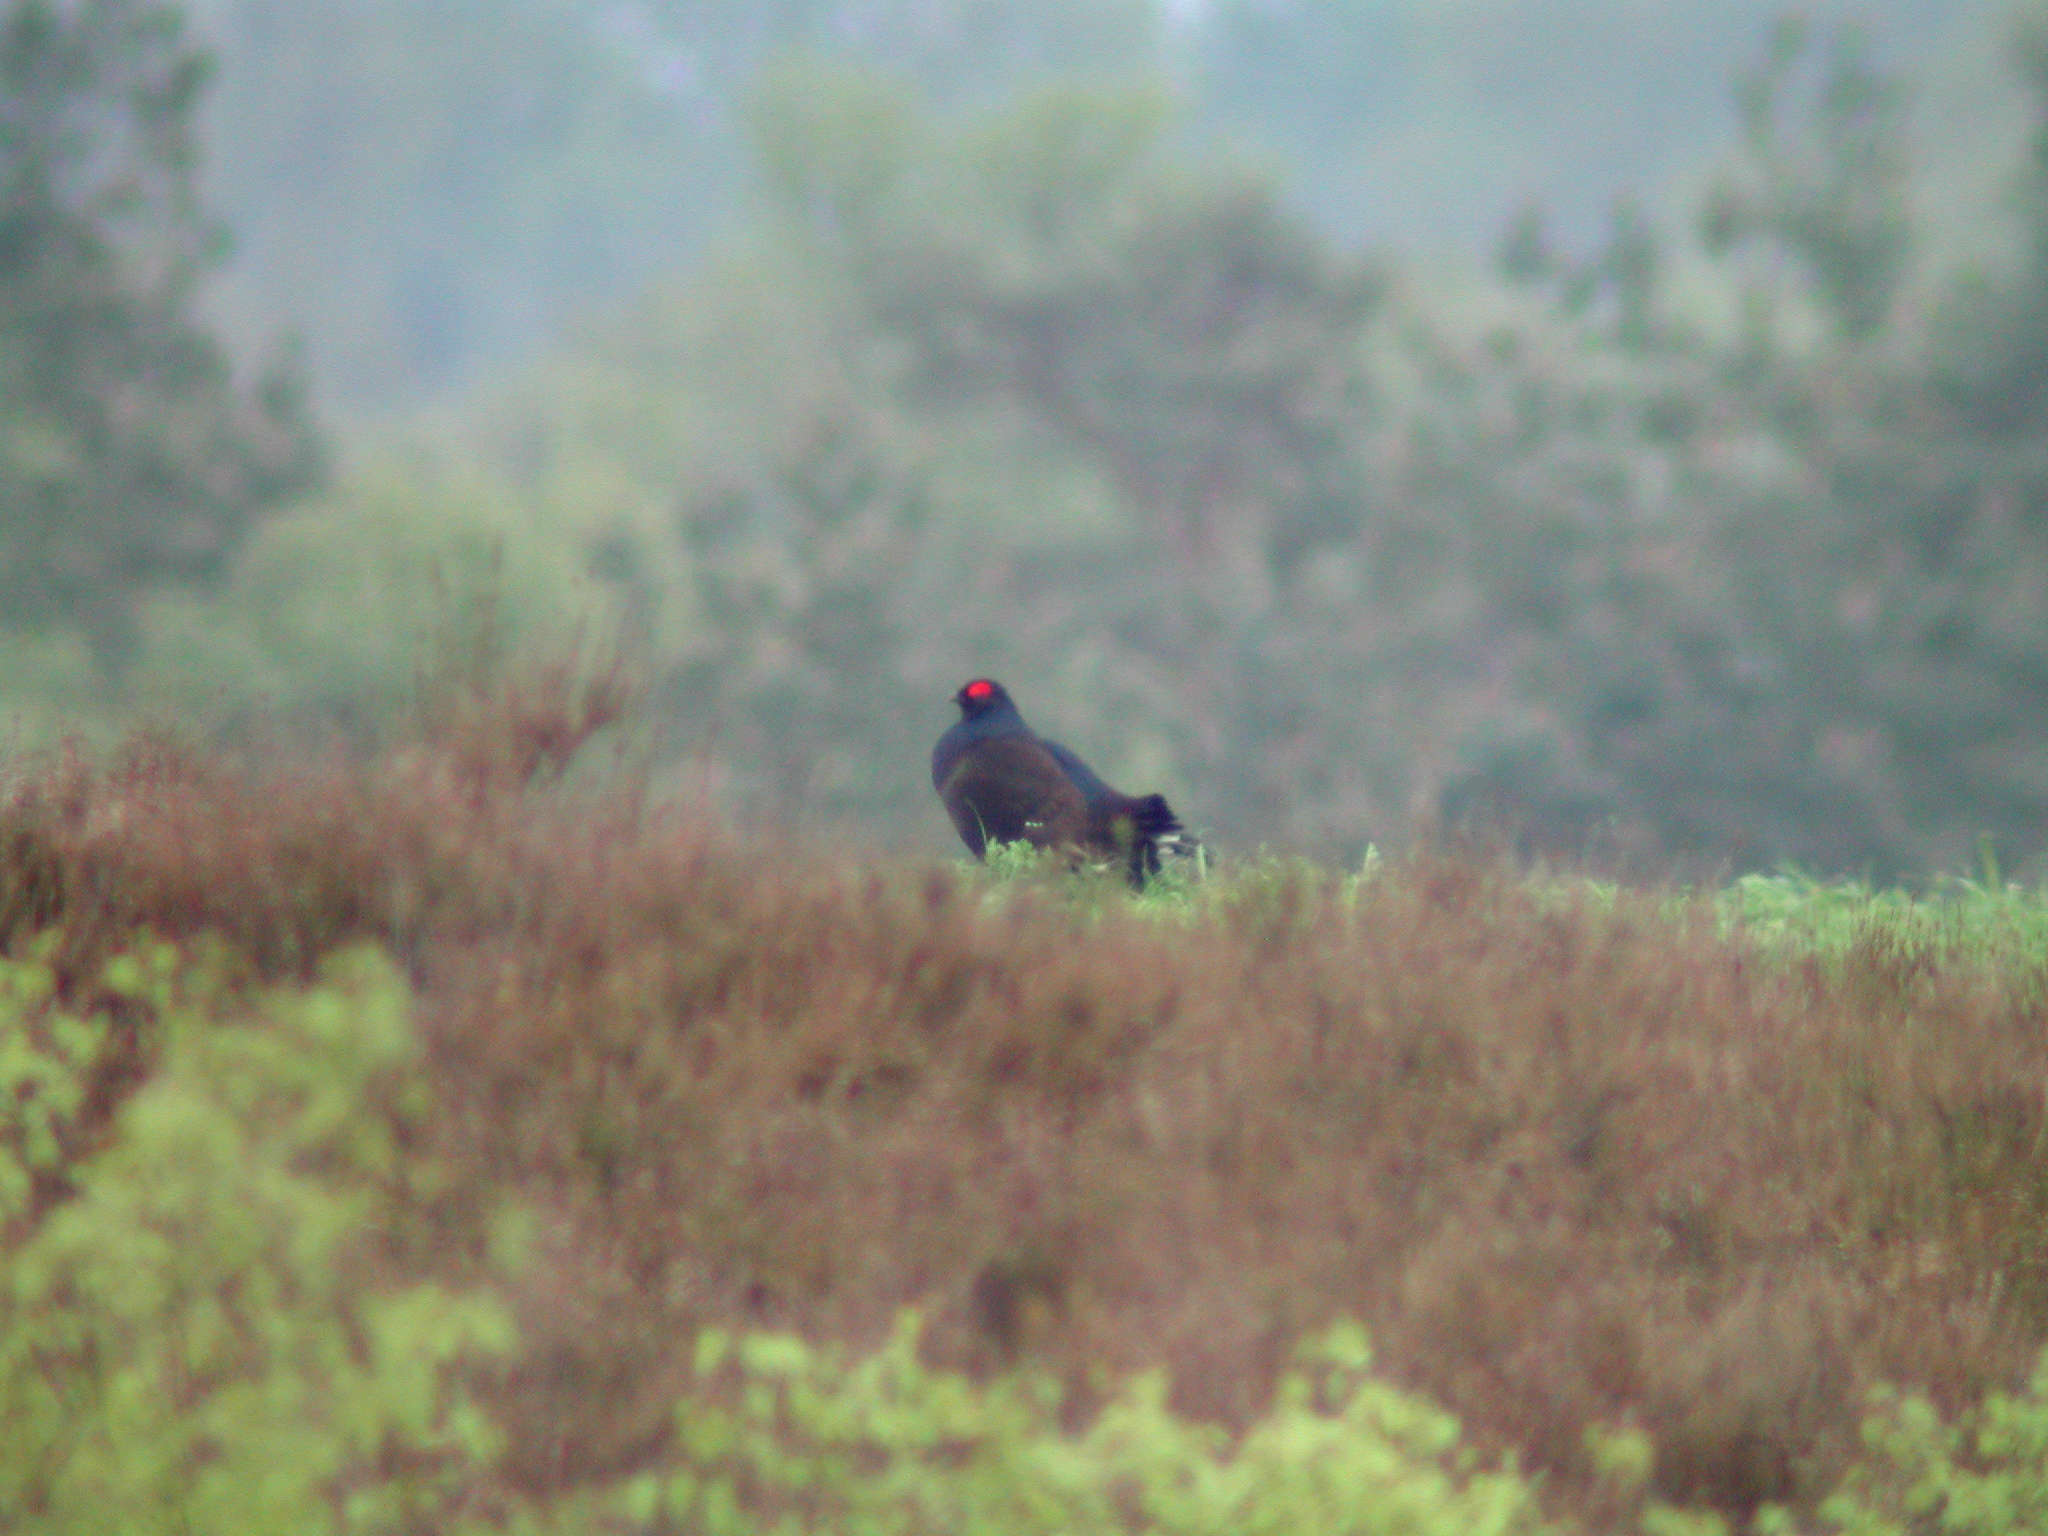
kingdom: Animalia
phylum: Chordata
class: Aves
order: Galliformes
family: Phasianidae
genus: Lyrurus
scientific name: Lyrurus tetrix
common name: Black grouse
